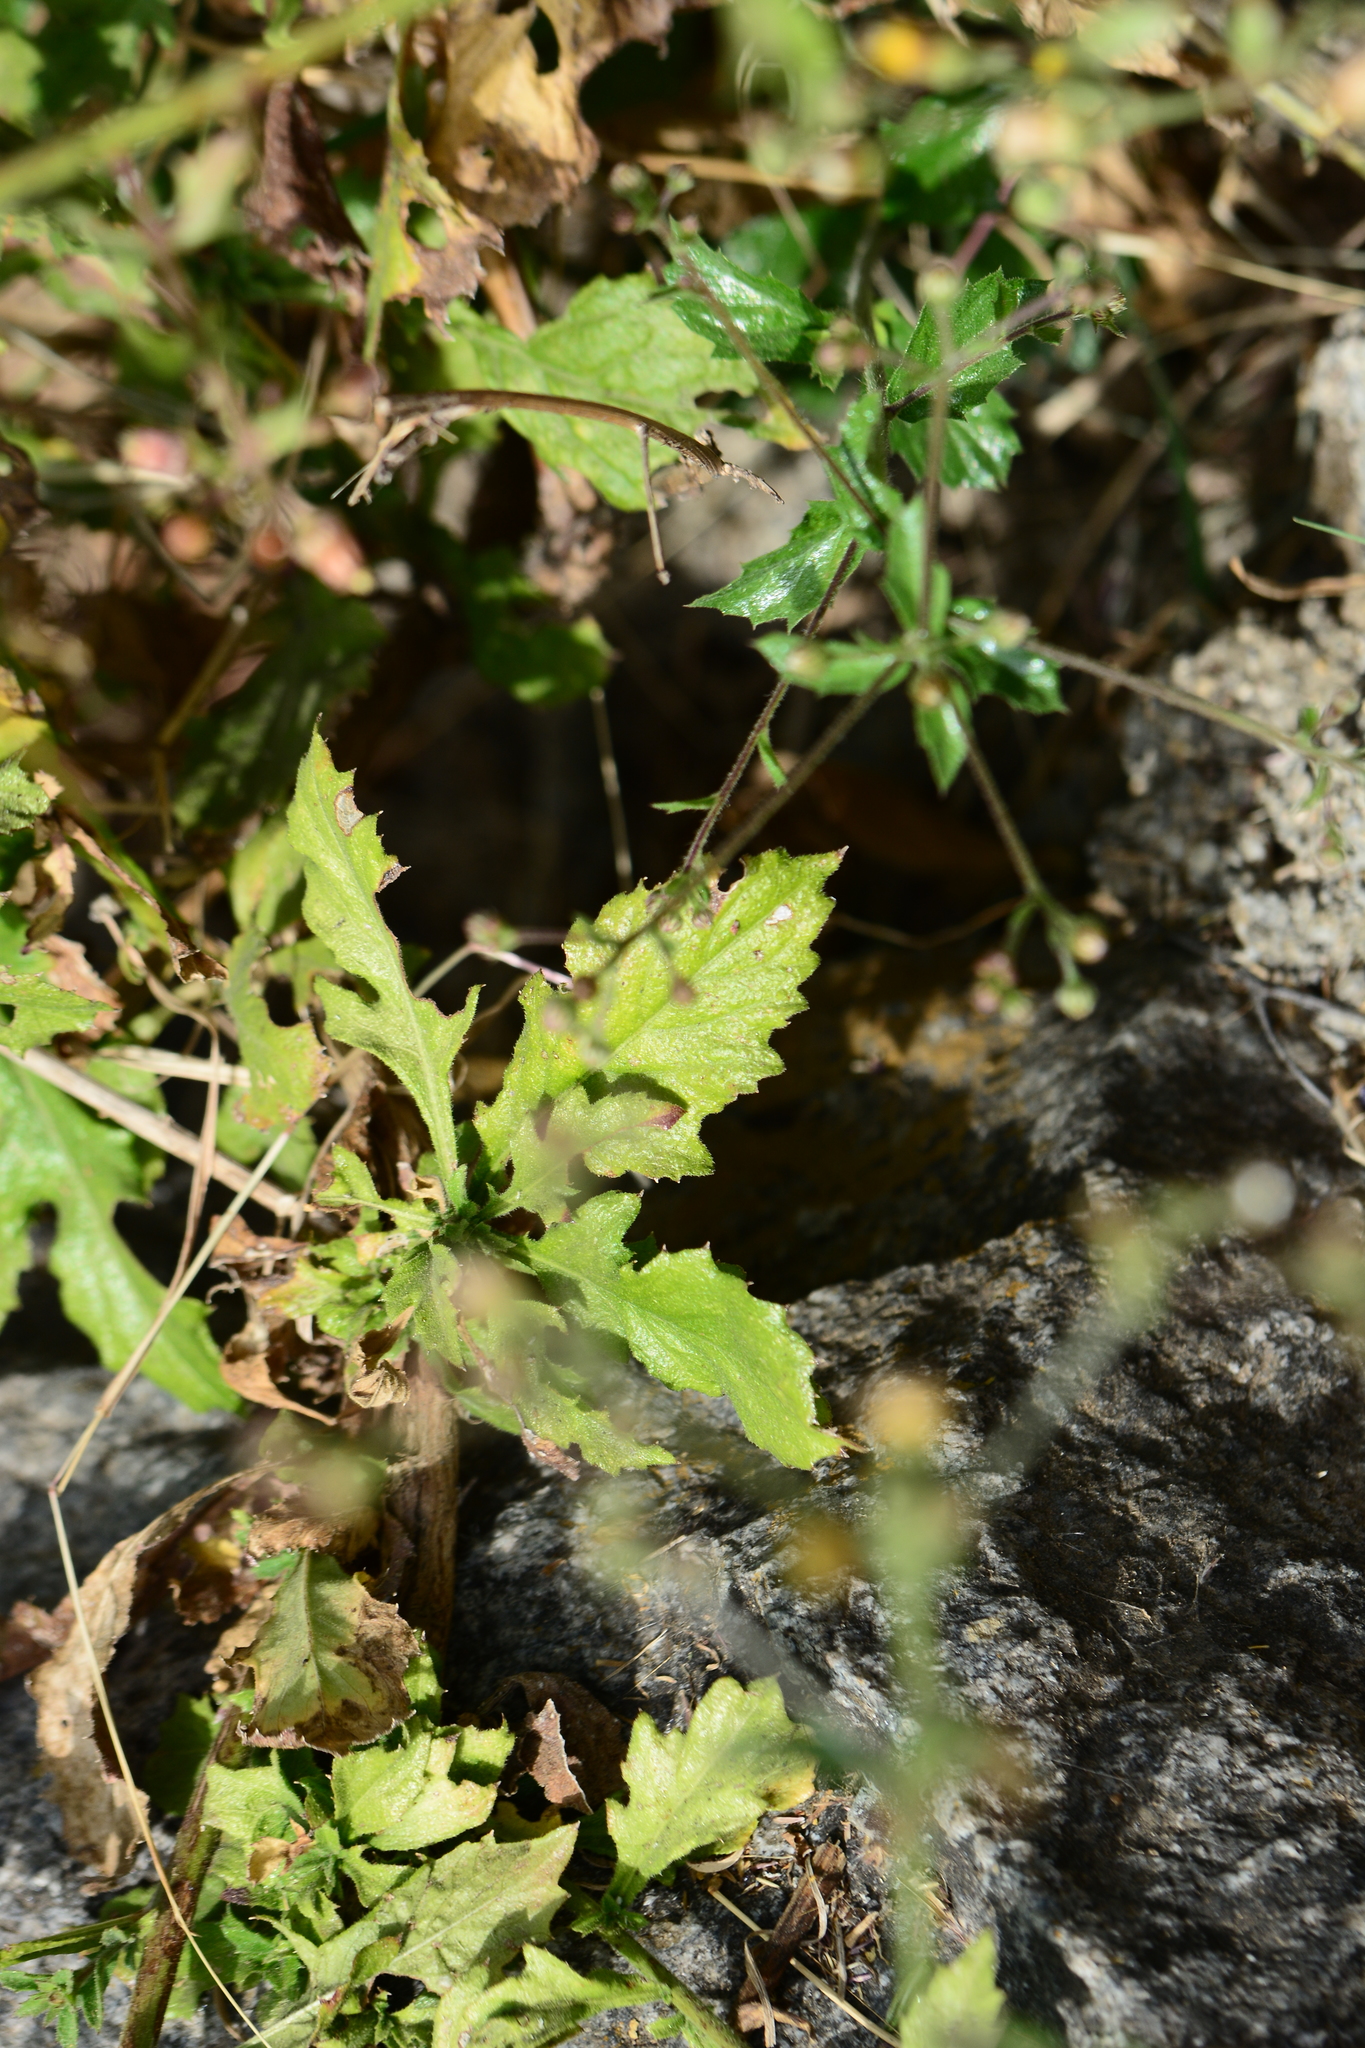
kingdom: Plantae
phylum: Tracheophyta
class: Magnoliopsida
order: Asterales
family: Asteraceae
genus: Pluchea
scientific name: Pluchea paniculata
